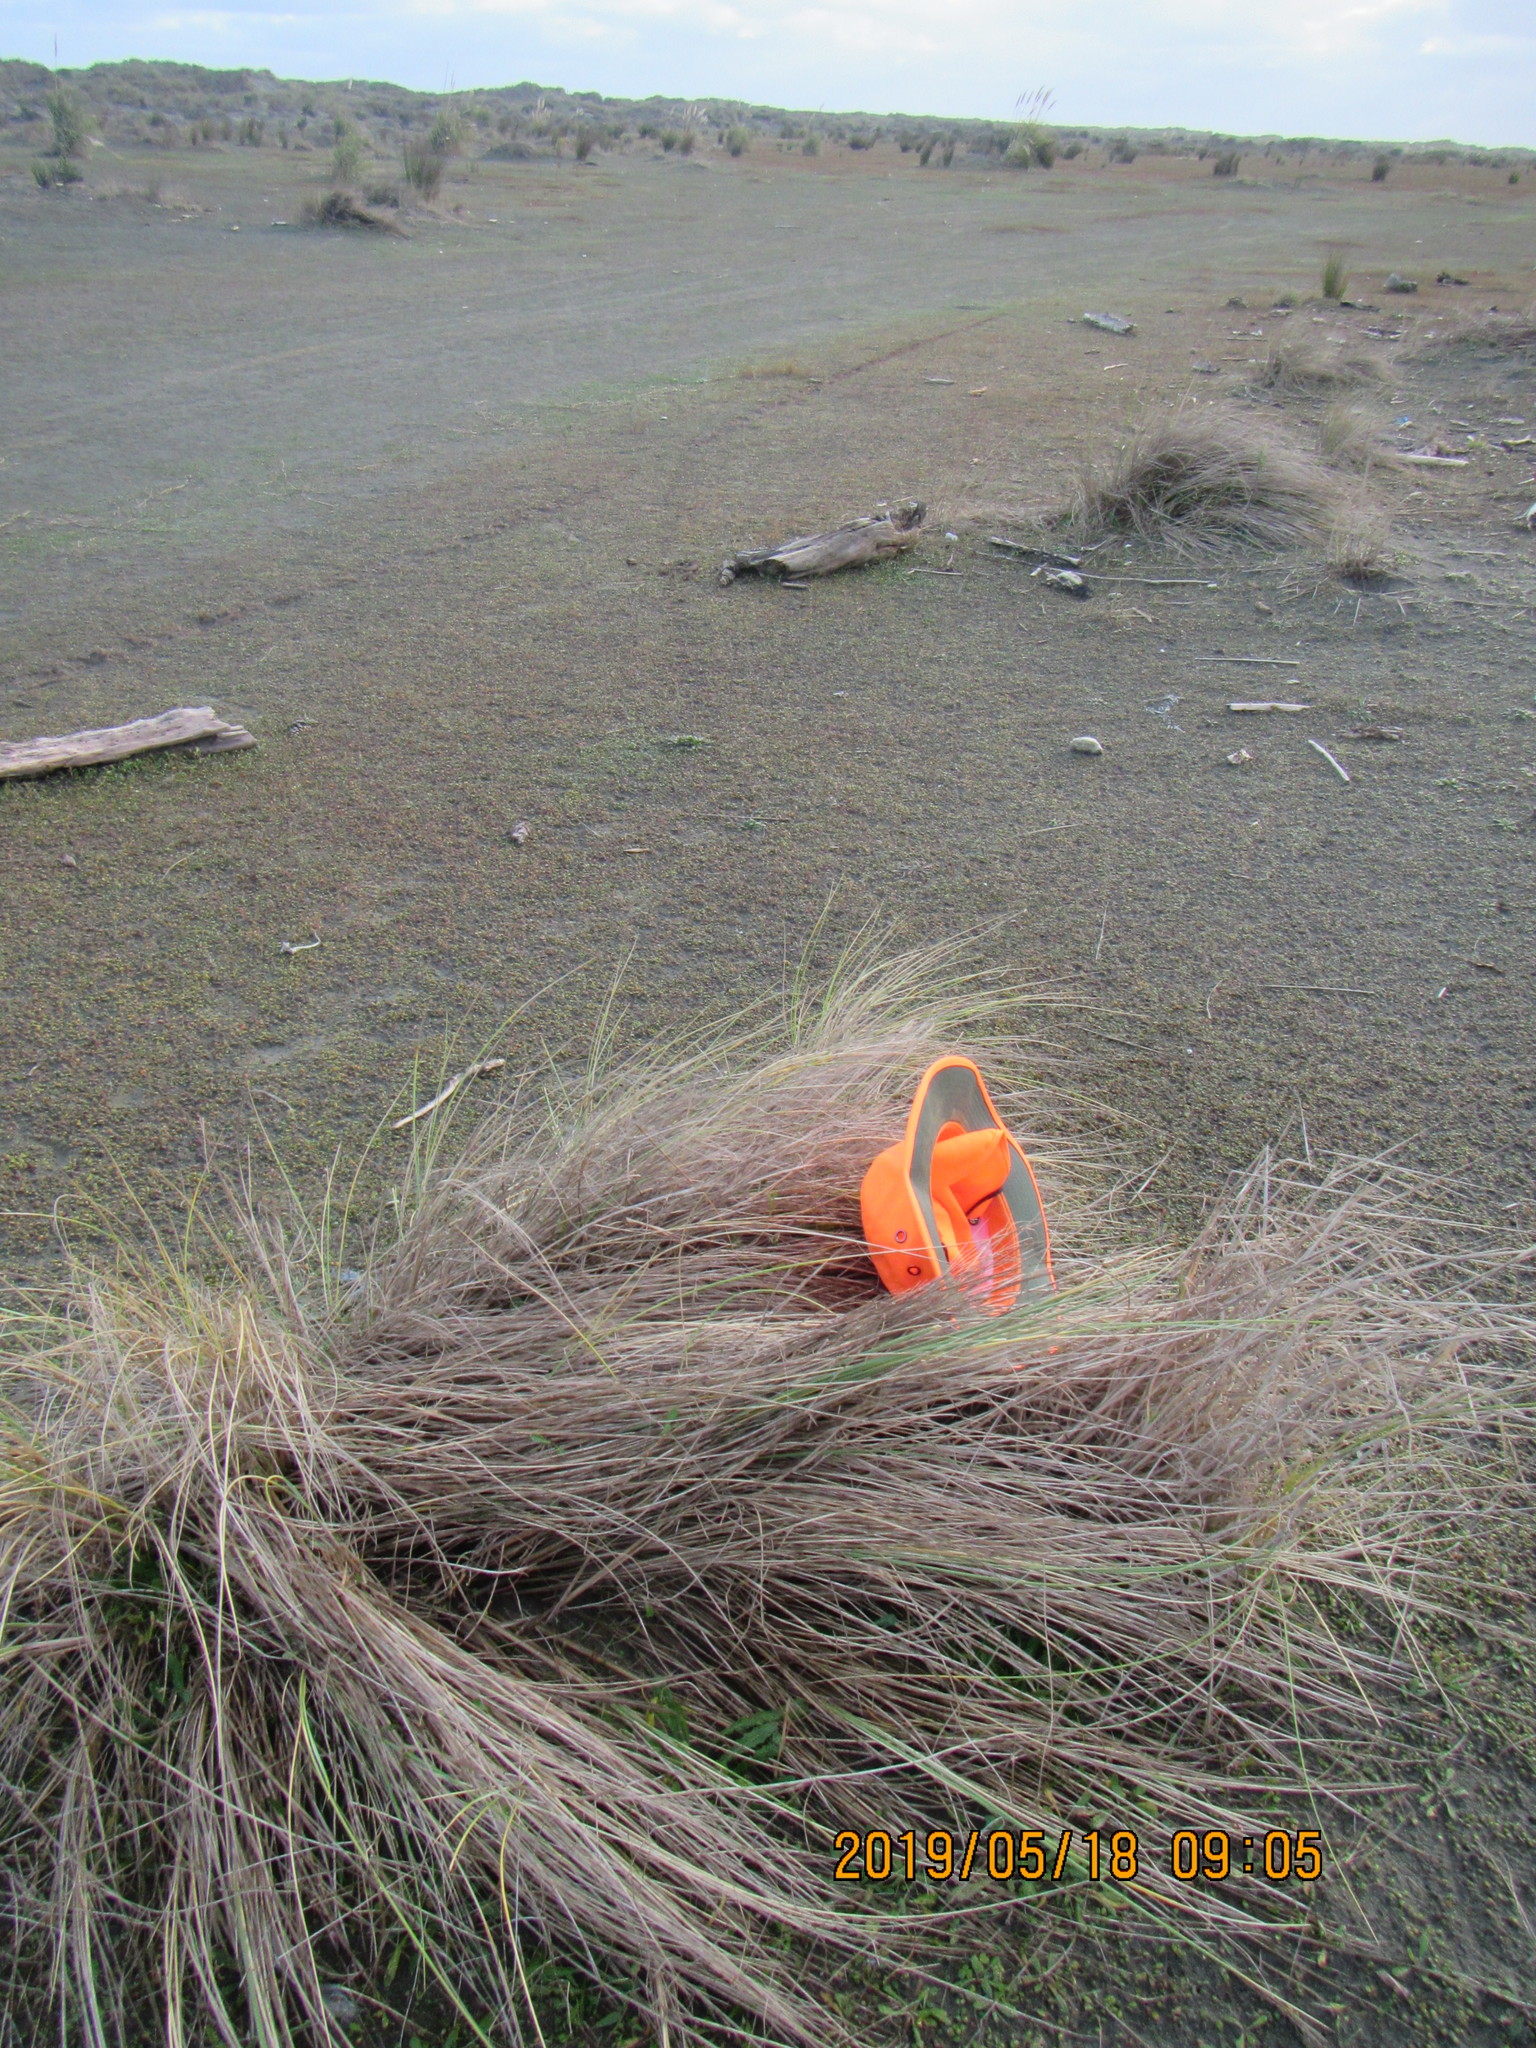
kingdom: Animalia
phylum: Arthropoda
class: Arachnida
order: Opiliones
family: Phalangiidae
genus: Phalangium
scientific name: Phalangium opilio
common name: Daddy longleg
